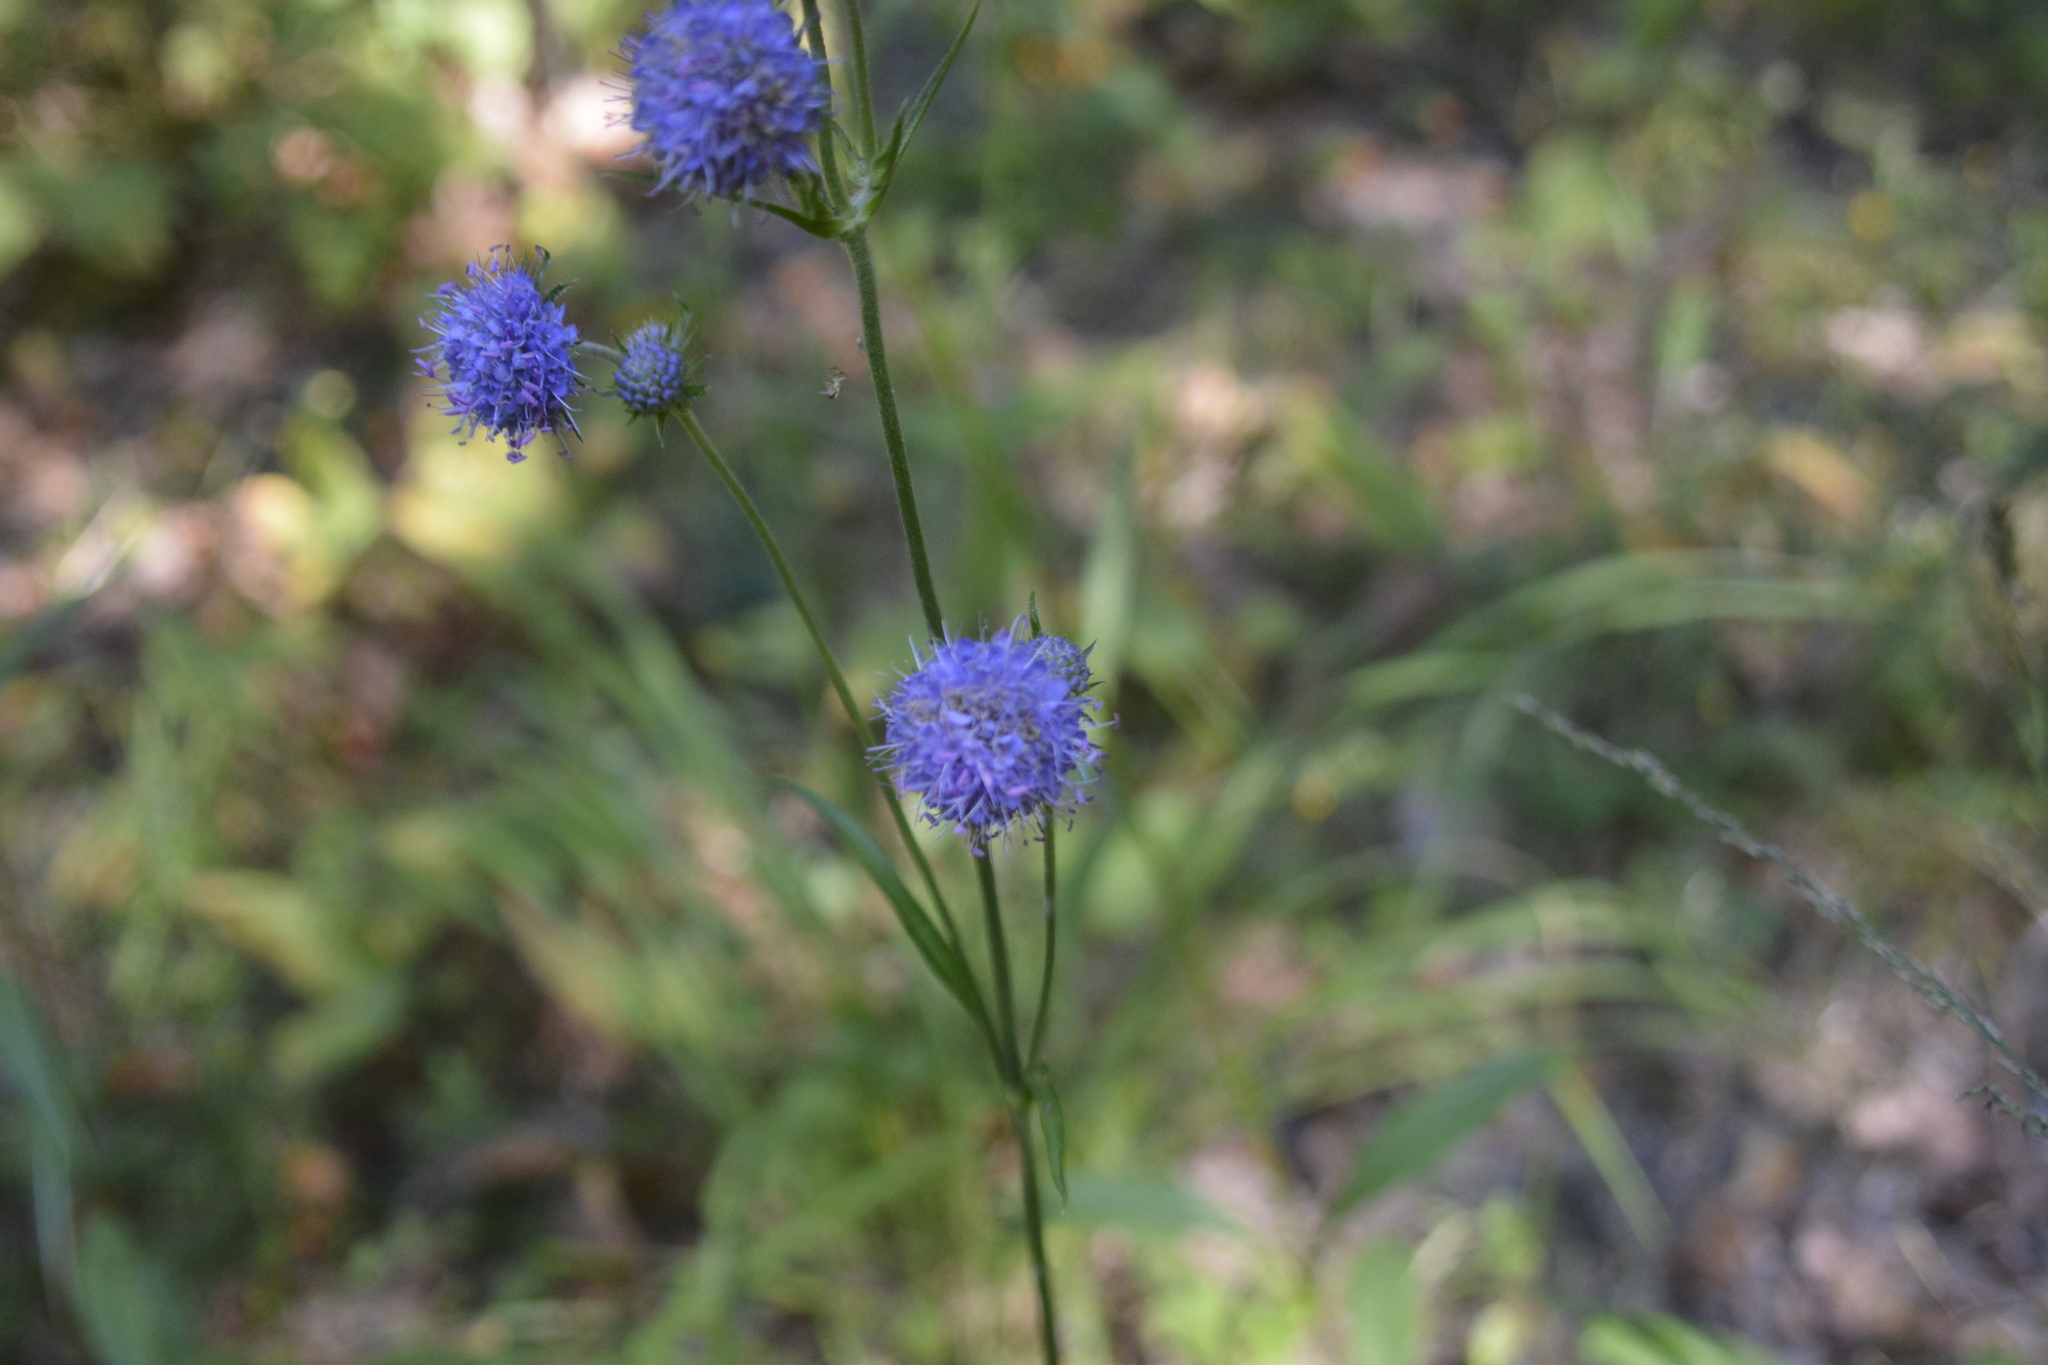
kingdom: Plantae
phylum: Tracheophyta
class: Magnoliopsida
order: Dipsacales
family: Caprifoliaceae
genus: Succisa
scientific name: Succisa pratensis
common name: Devil's-bit
